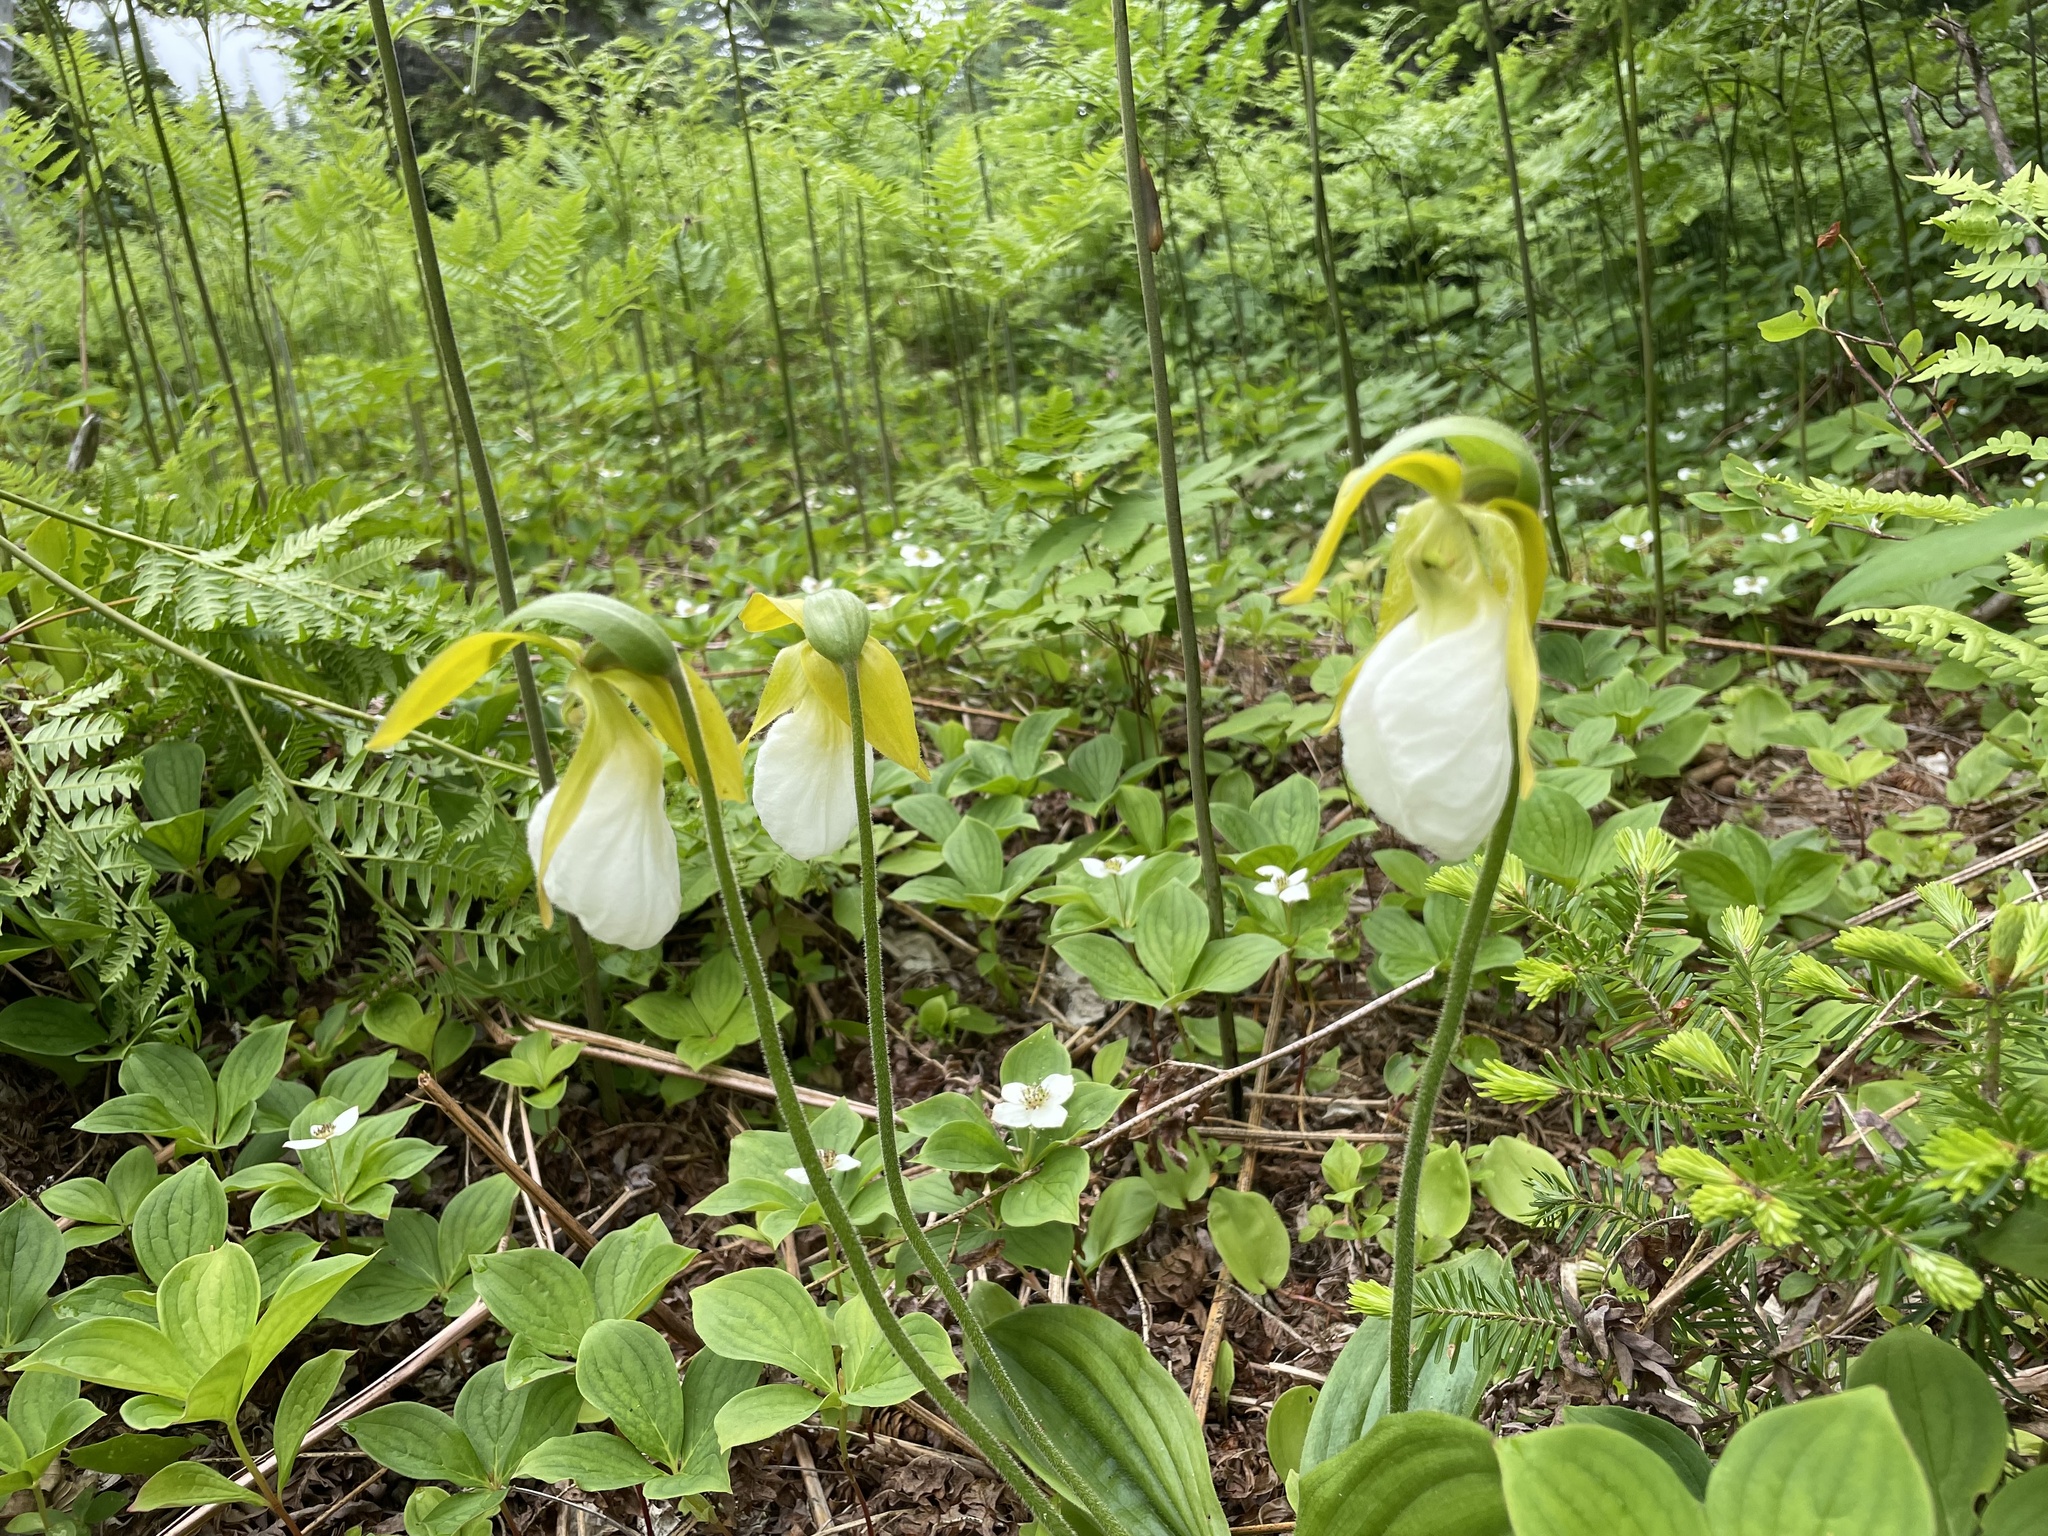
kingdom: Plantae
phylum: Tracheophyta
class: Liliopsida
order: Asparagales
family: Orchidaceae
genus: Cypripedium
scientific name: Cypripedium acaule
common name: Pink lady's-slipper
